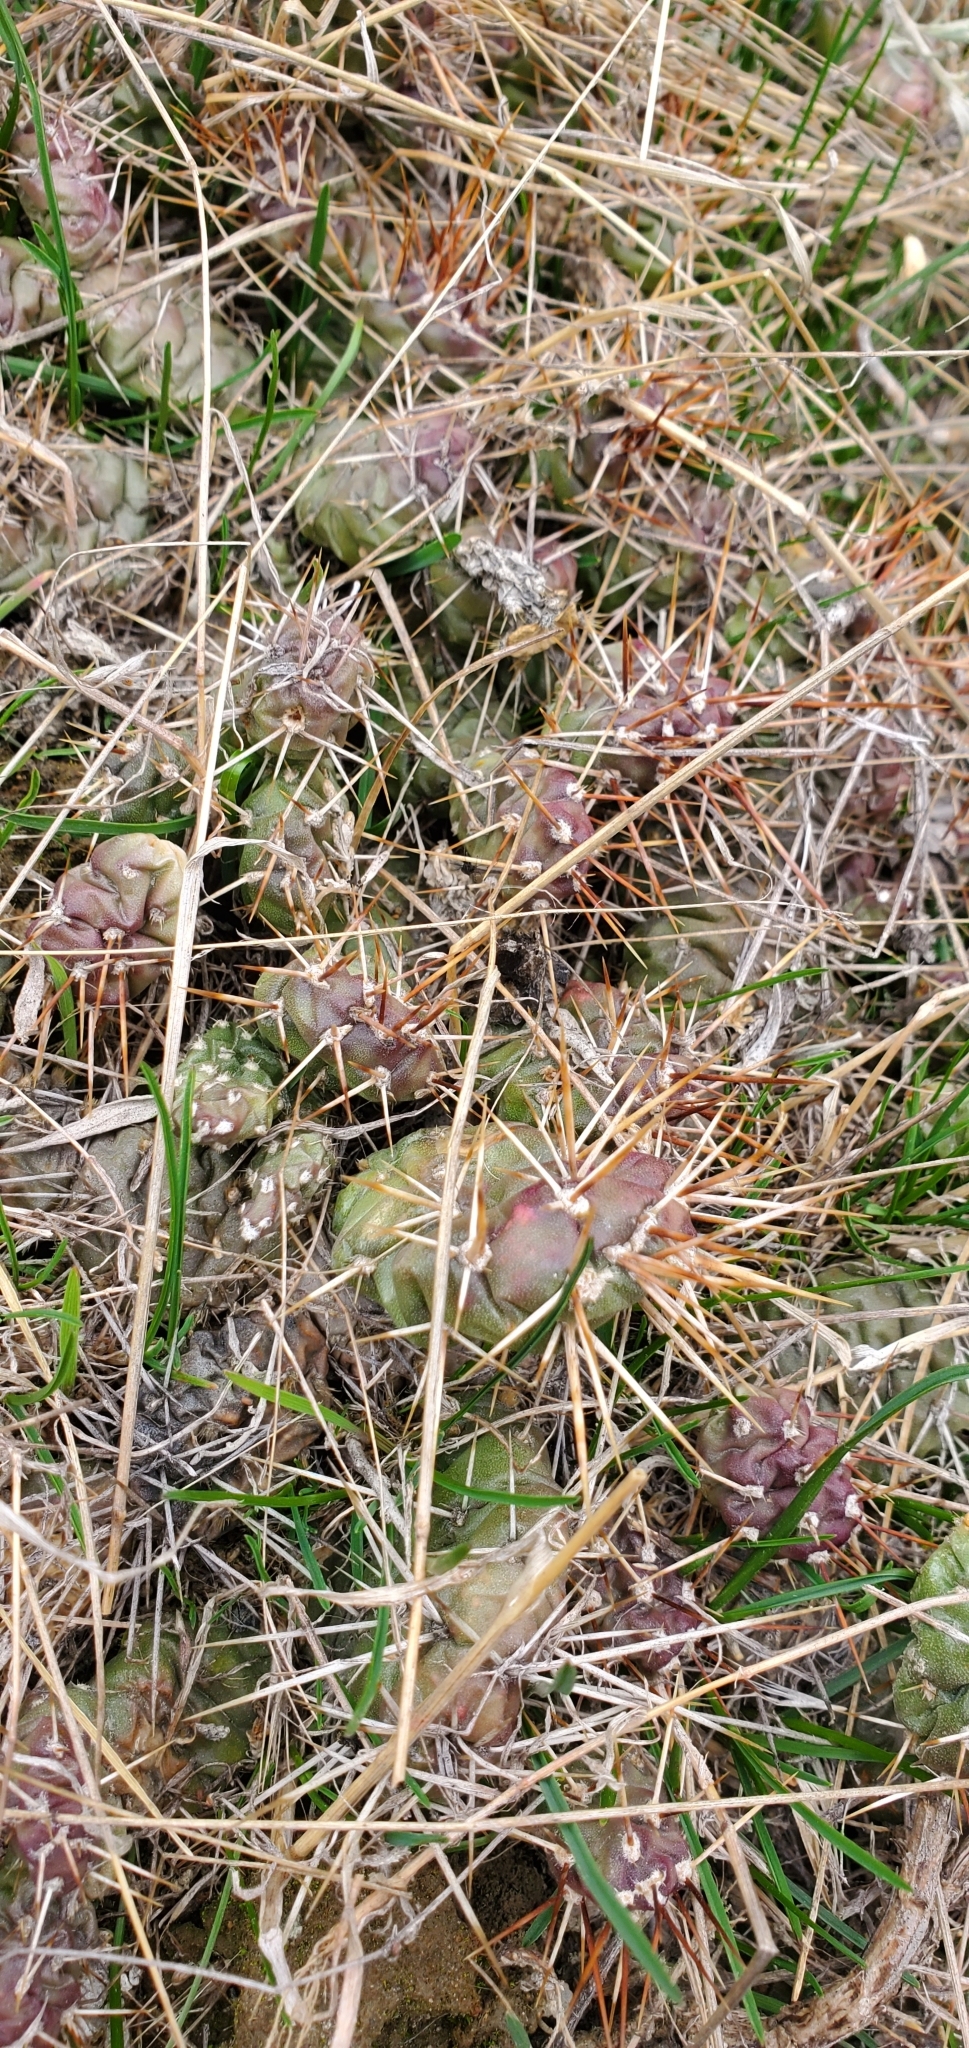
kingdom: Plantae
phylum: Tracheophyta
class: Magnoliopsida
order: Caryophyllales
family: Cactaceae
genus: Opuntia
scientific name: Opuntia fragilis
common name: Brittle cactus
